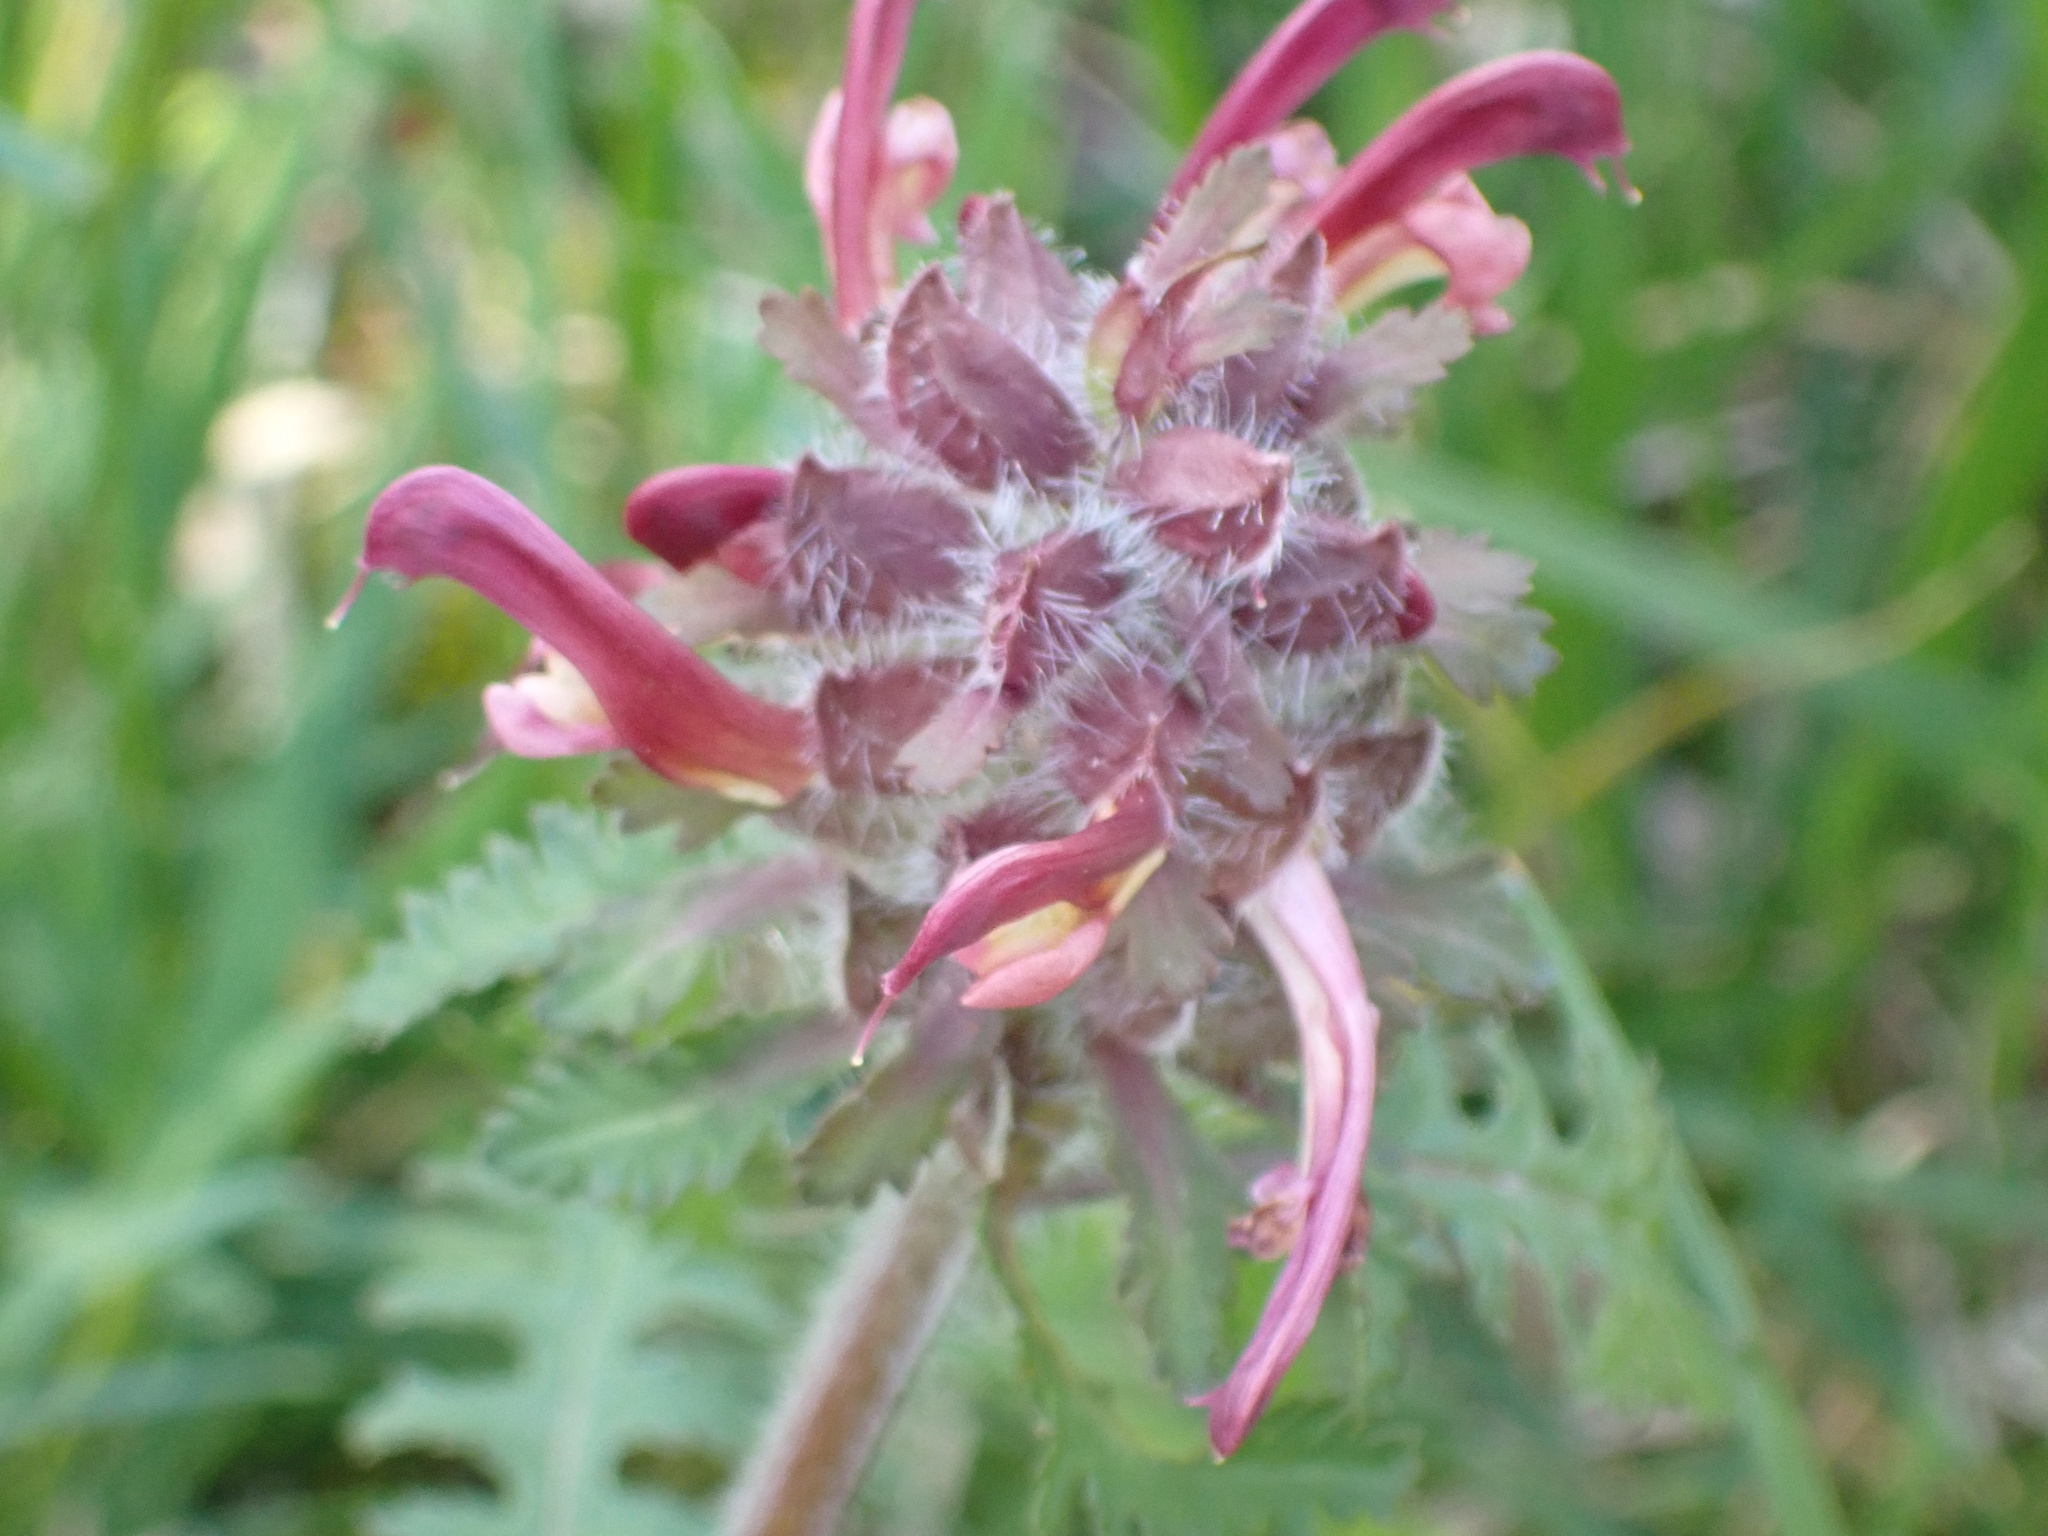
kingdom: Plantae
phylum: Tracheophyta
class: Magnoliopsida
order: Lamiales
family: Orobanchaceae
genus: Pedicularis
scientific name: Pedicularis canadensis
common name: Early lousewort
